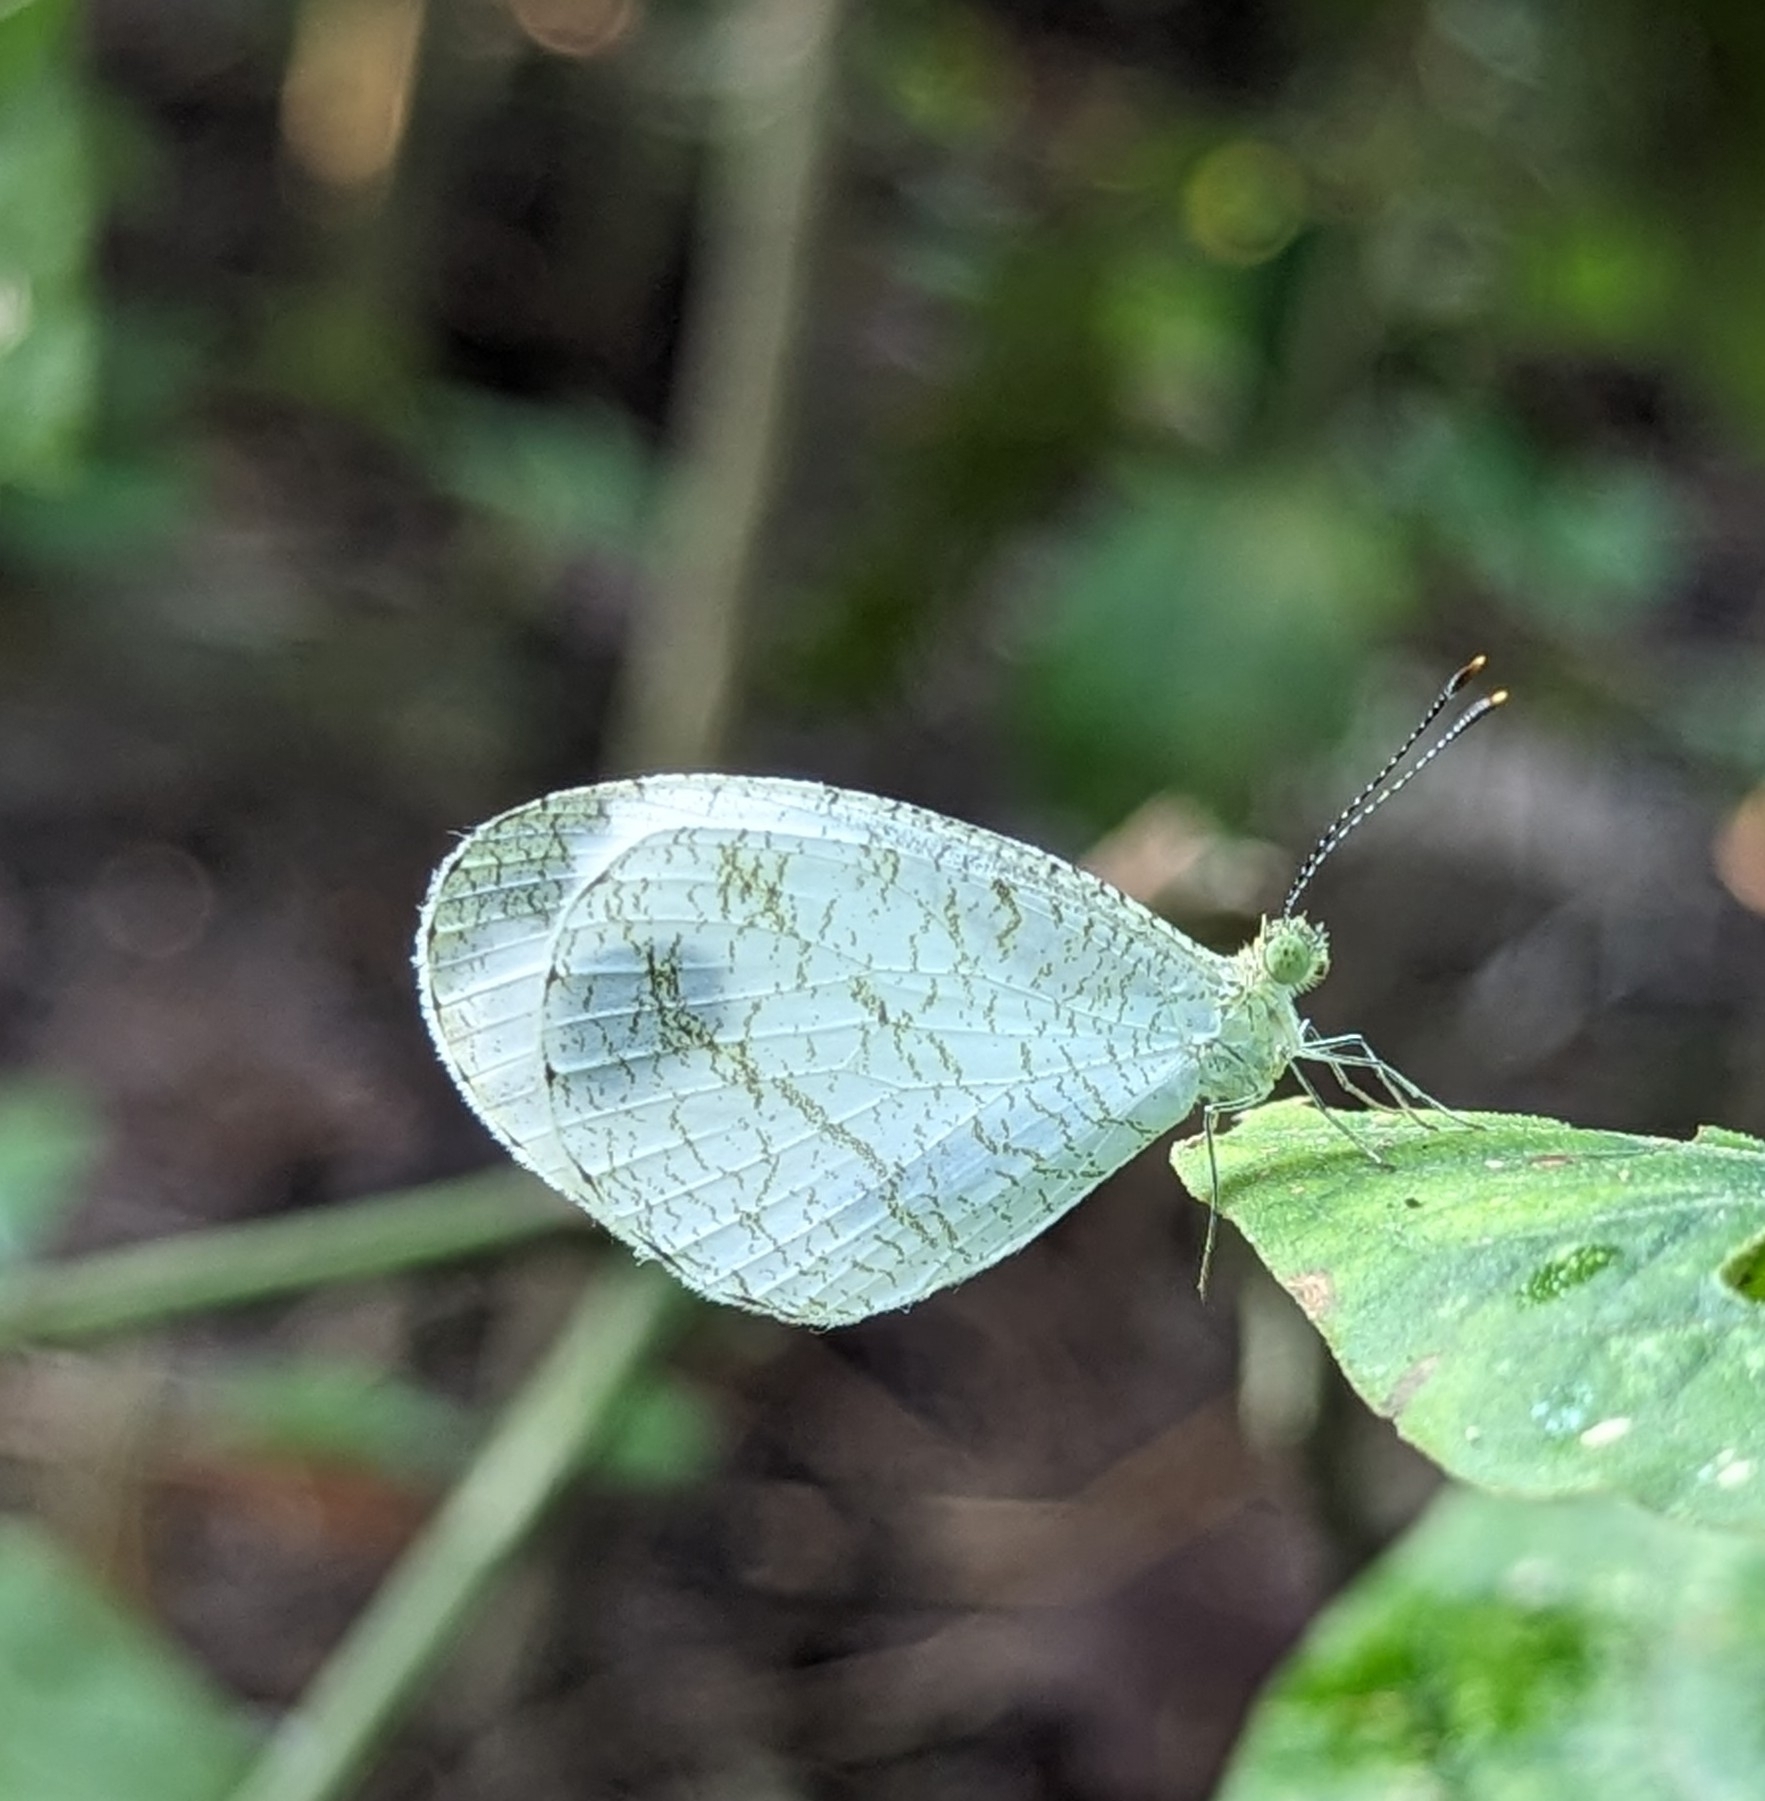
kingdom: Animalia
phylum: Arthropoda
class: Insecta
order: Lepidoptera
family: Pieridae
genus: Leptosia
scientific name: Leptosia nina
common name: Psyche
